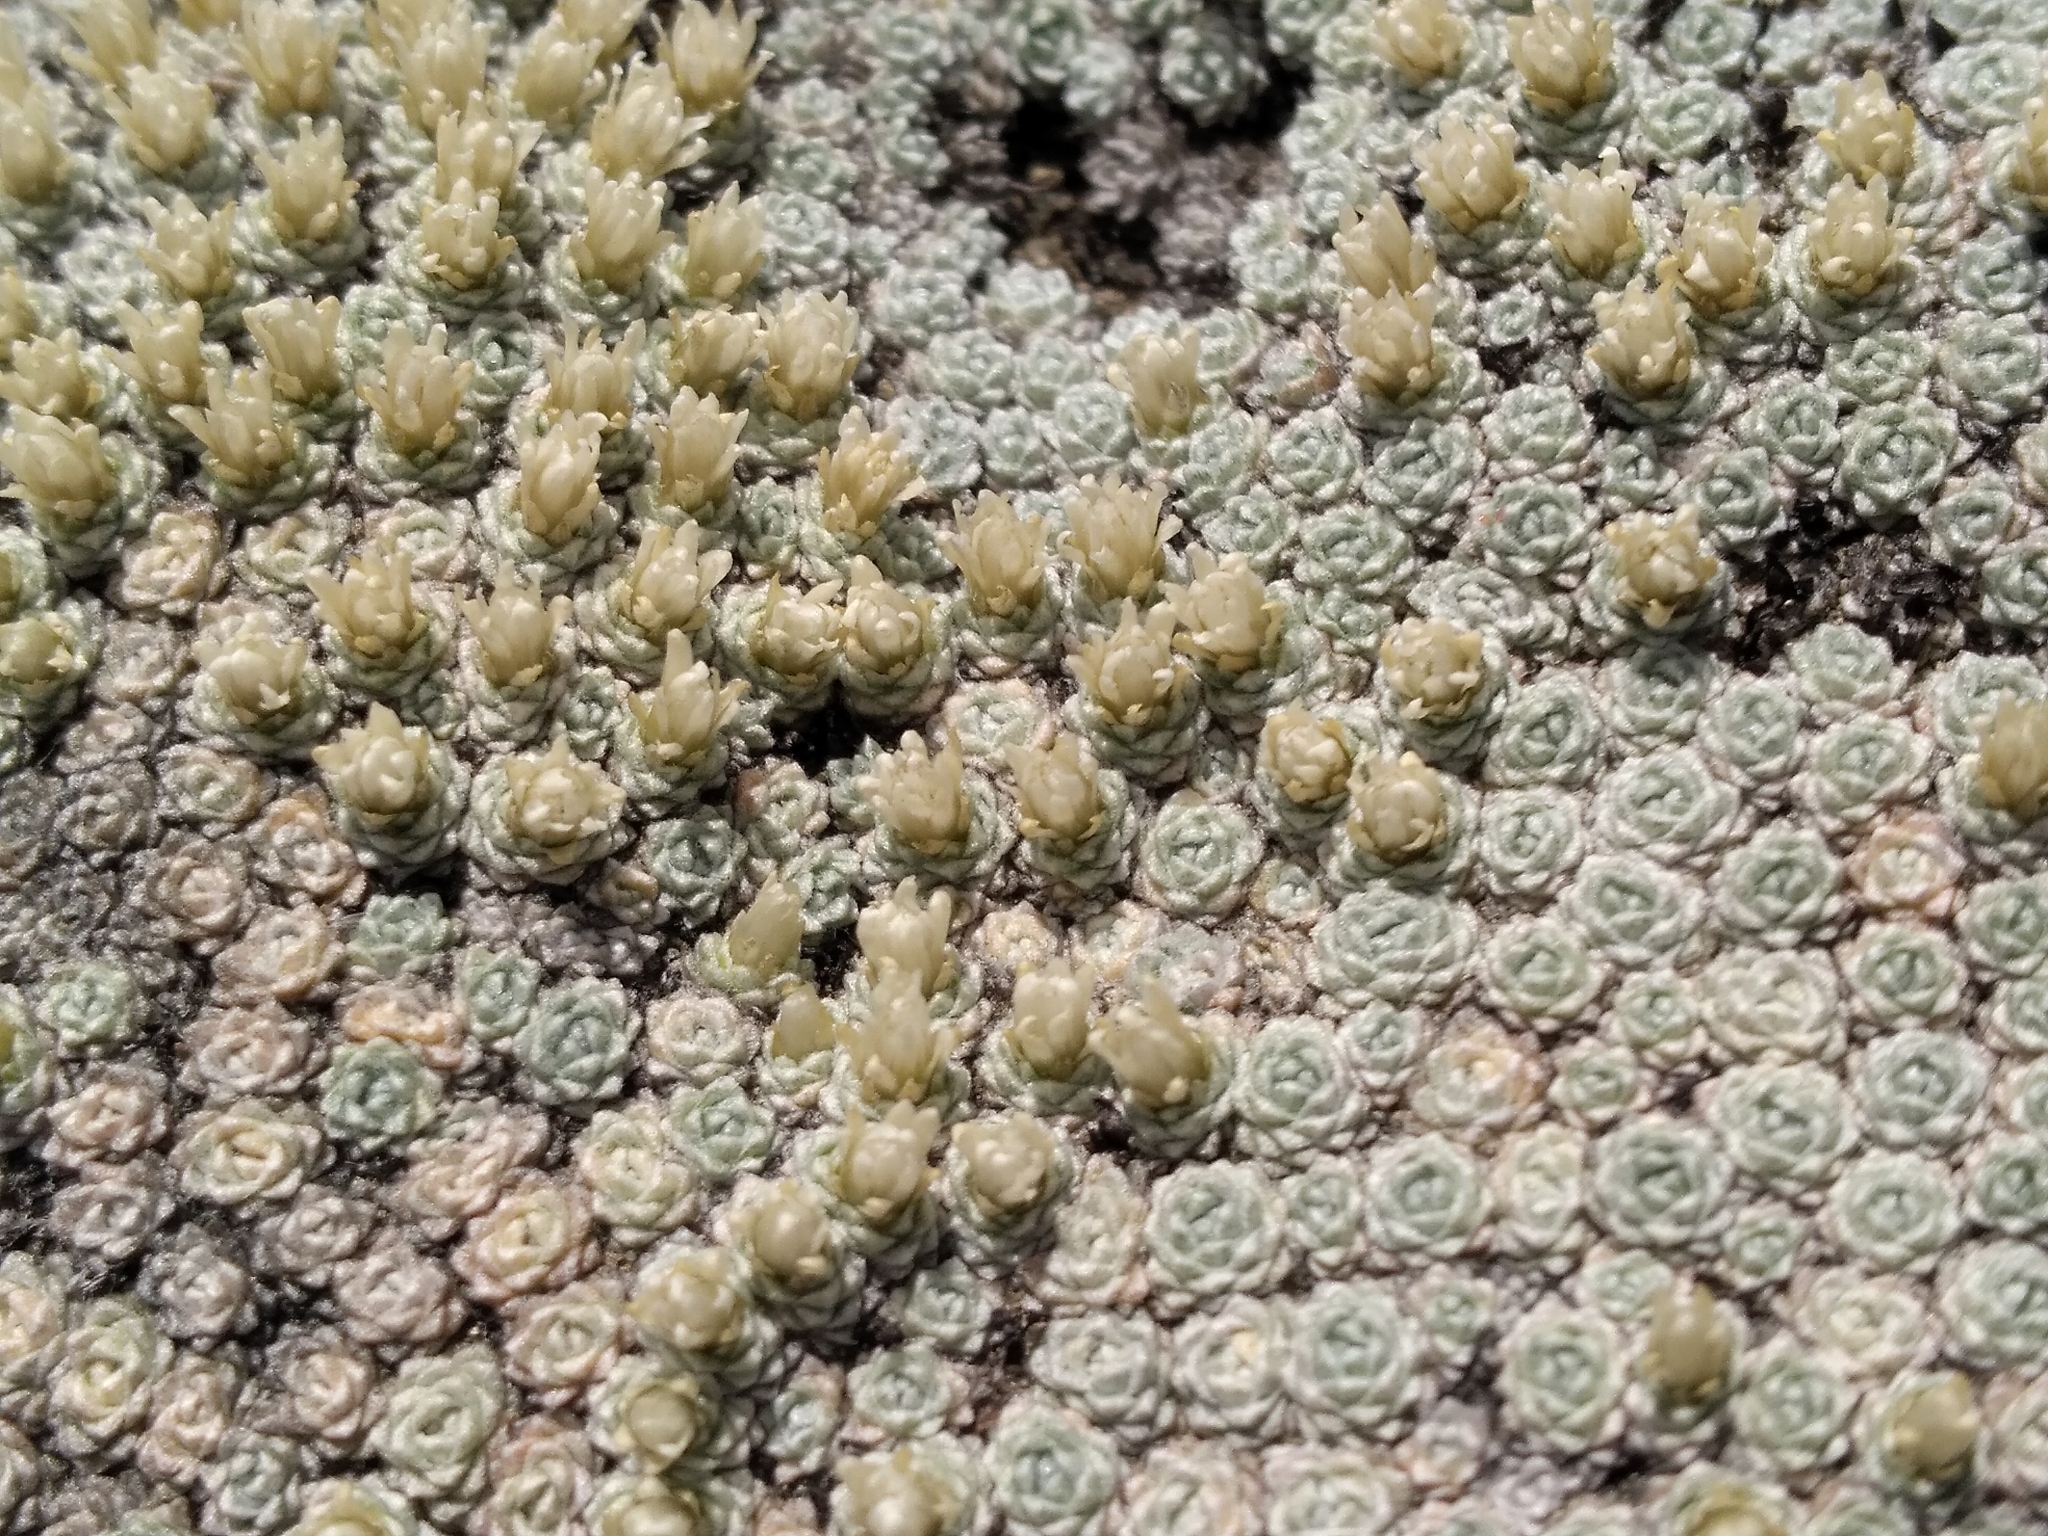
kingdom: Plantae
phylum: Tracheophyta
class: Magnoliopsida
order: Asterales
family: Asteraceae
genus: Raoulia
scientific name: Raoulia bryoides
